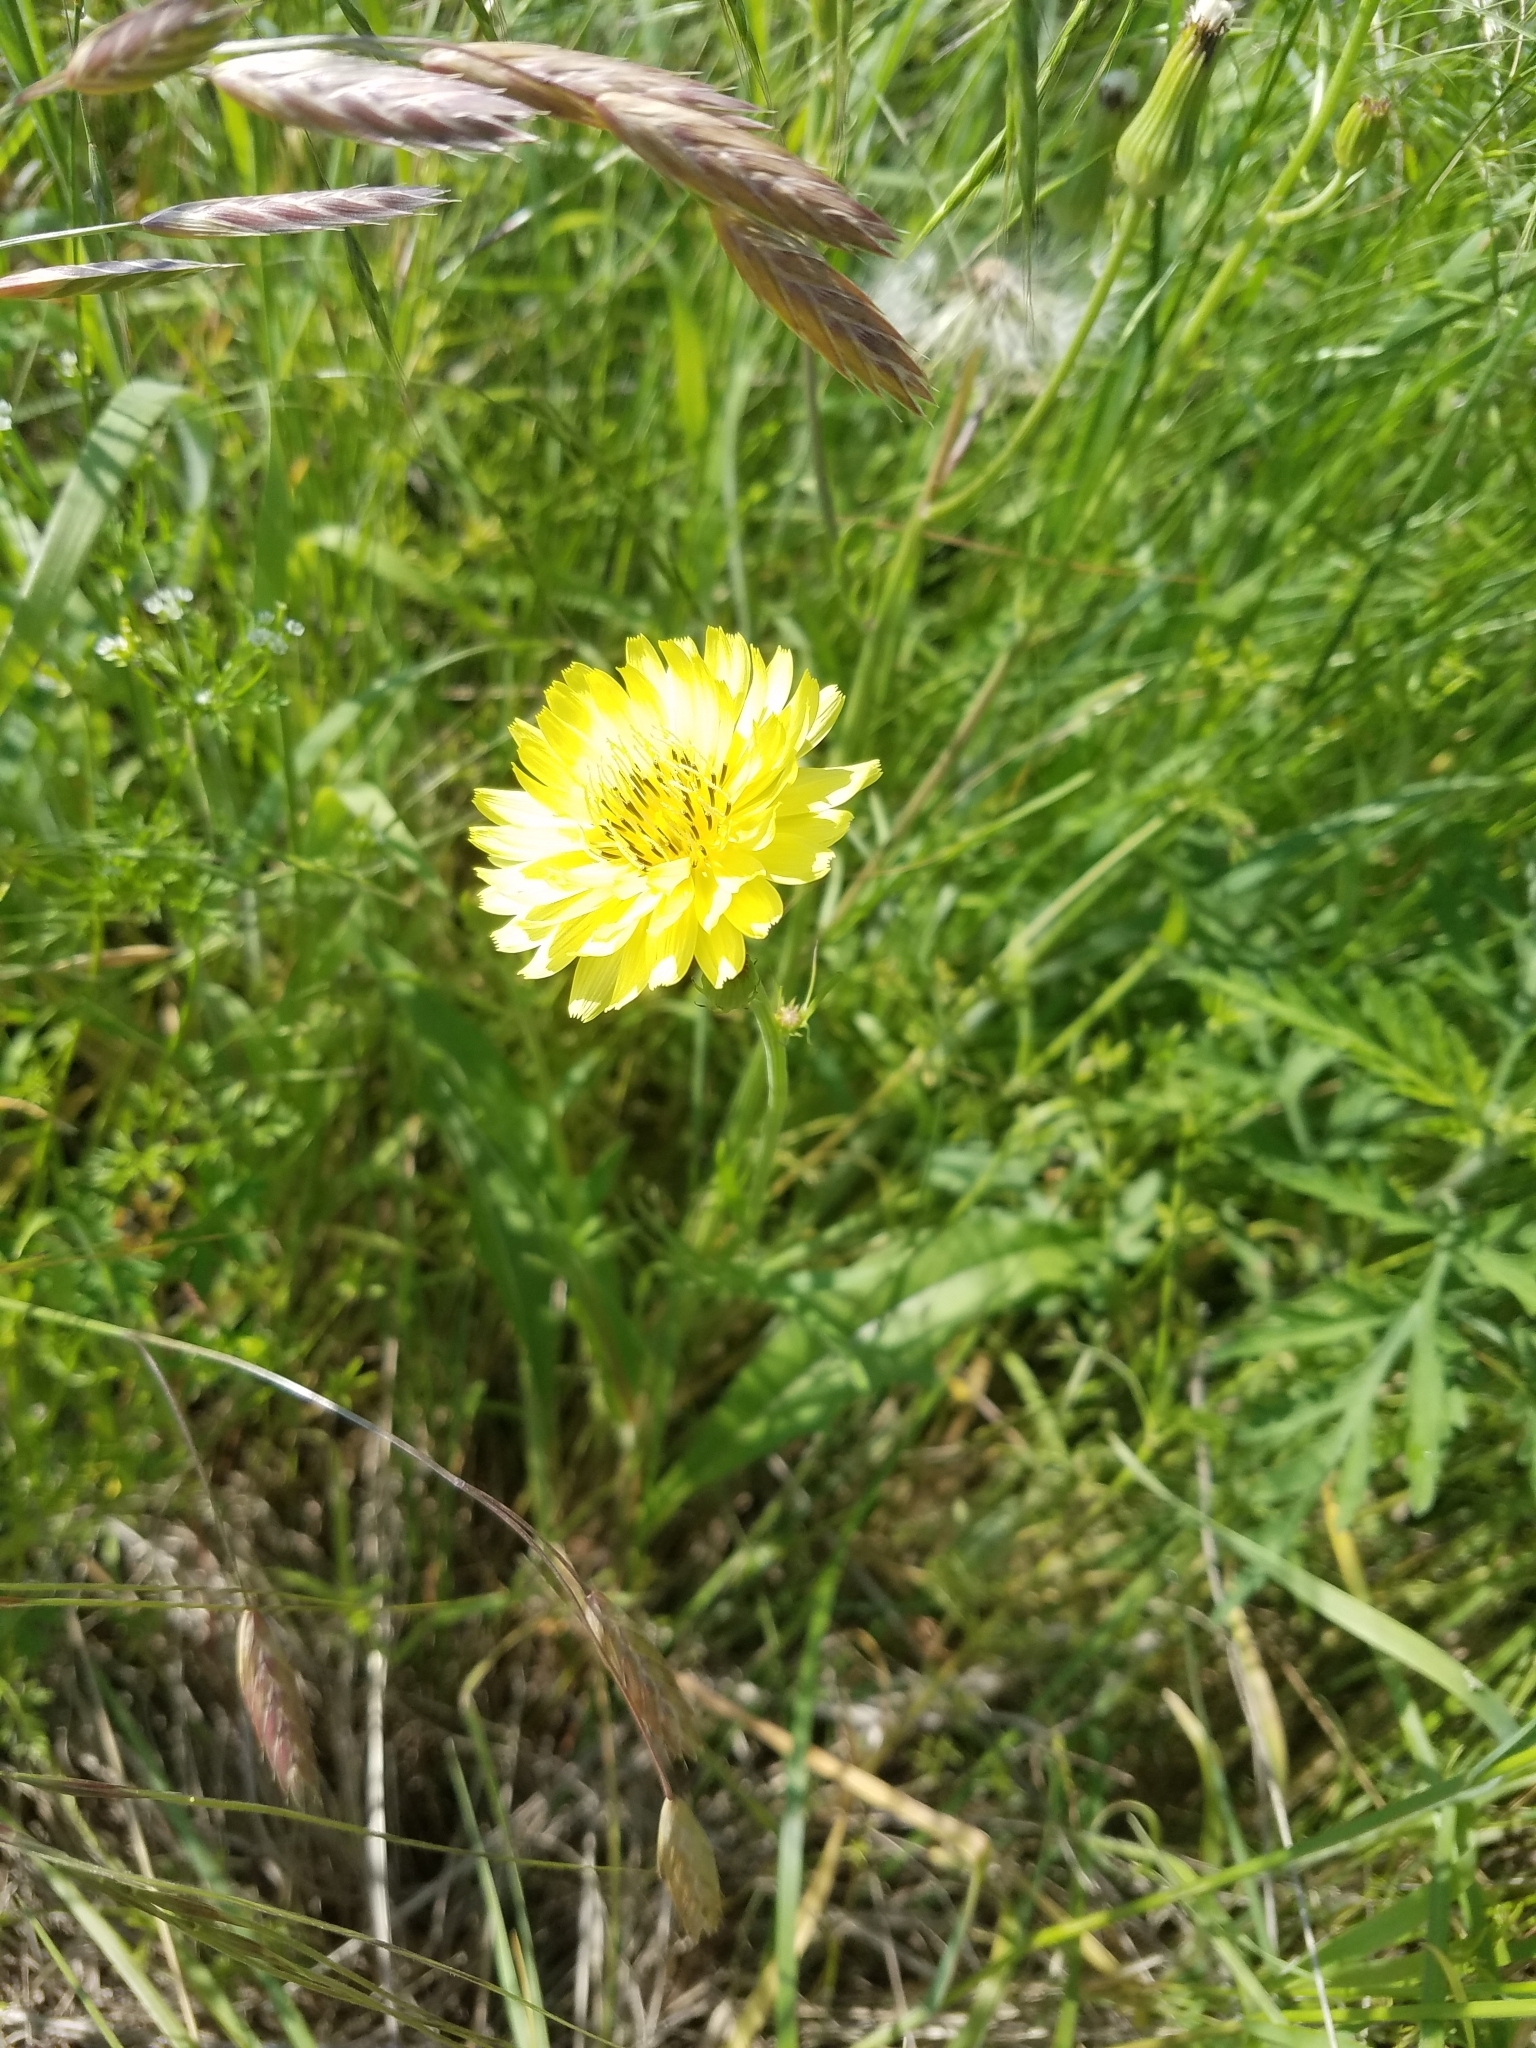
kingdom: Plantae
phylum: Tracheophyta
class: Magnoliopsida
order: Asterales
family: Asteraceae
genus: Pyrrhopappus
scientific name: Pyrrhopappus pauciflorus
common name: Texas false dandelion
